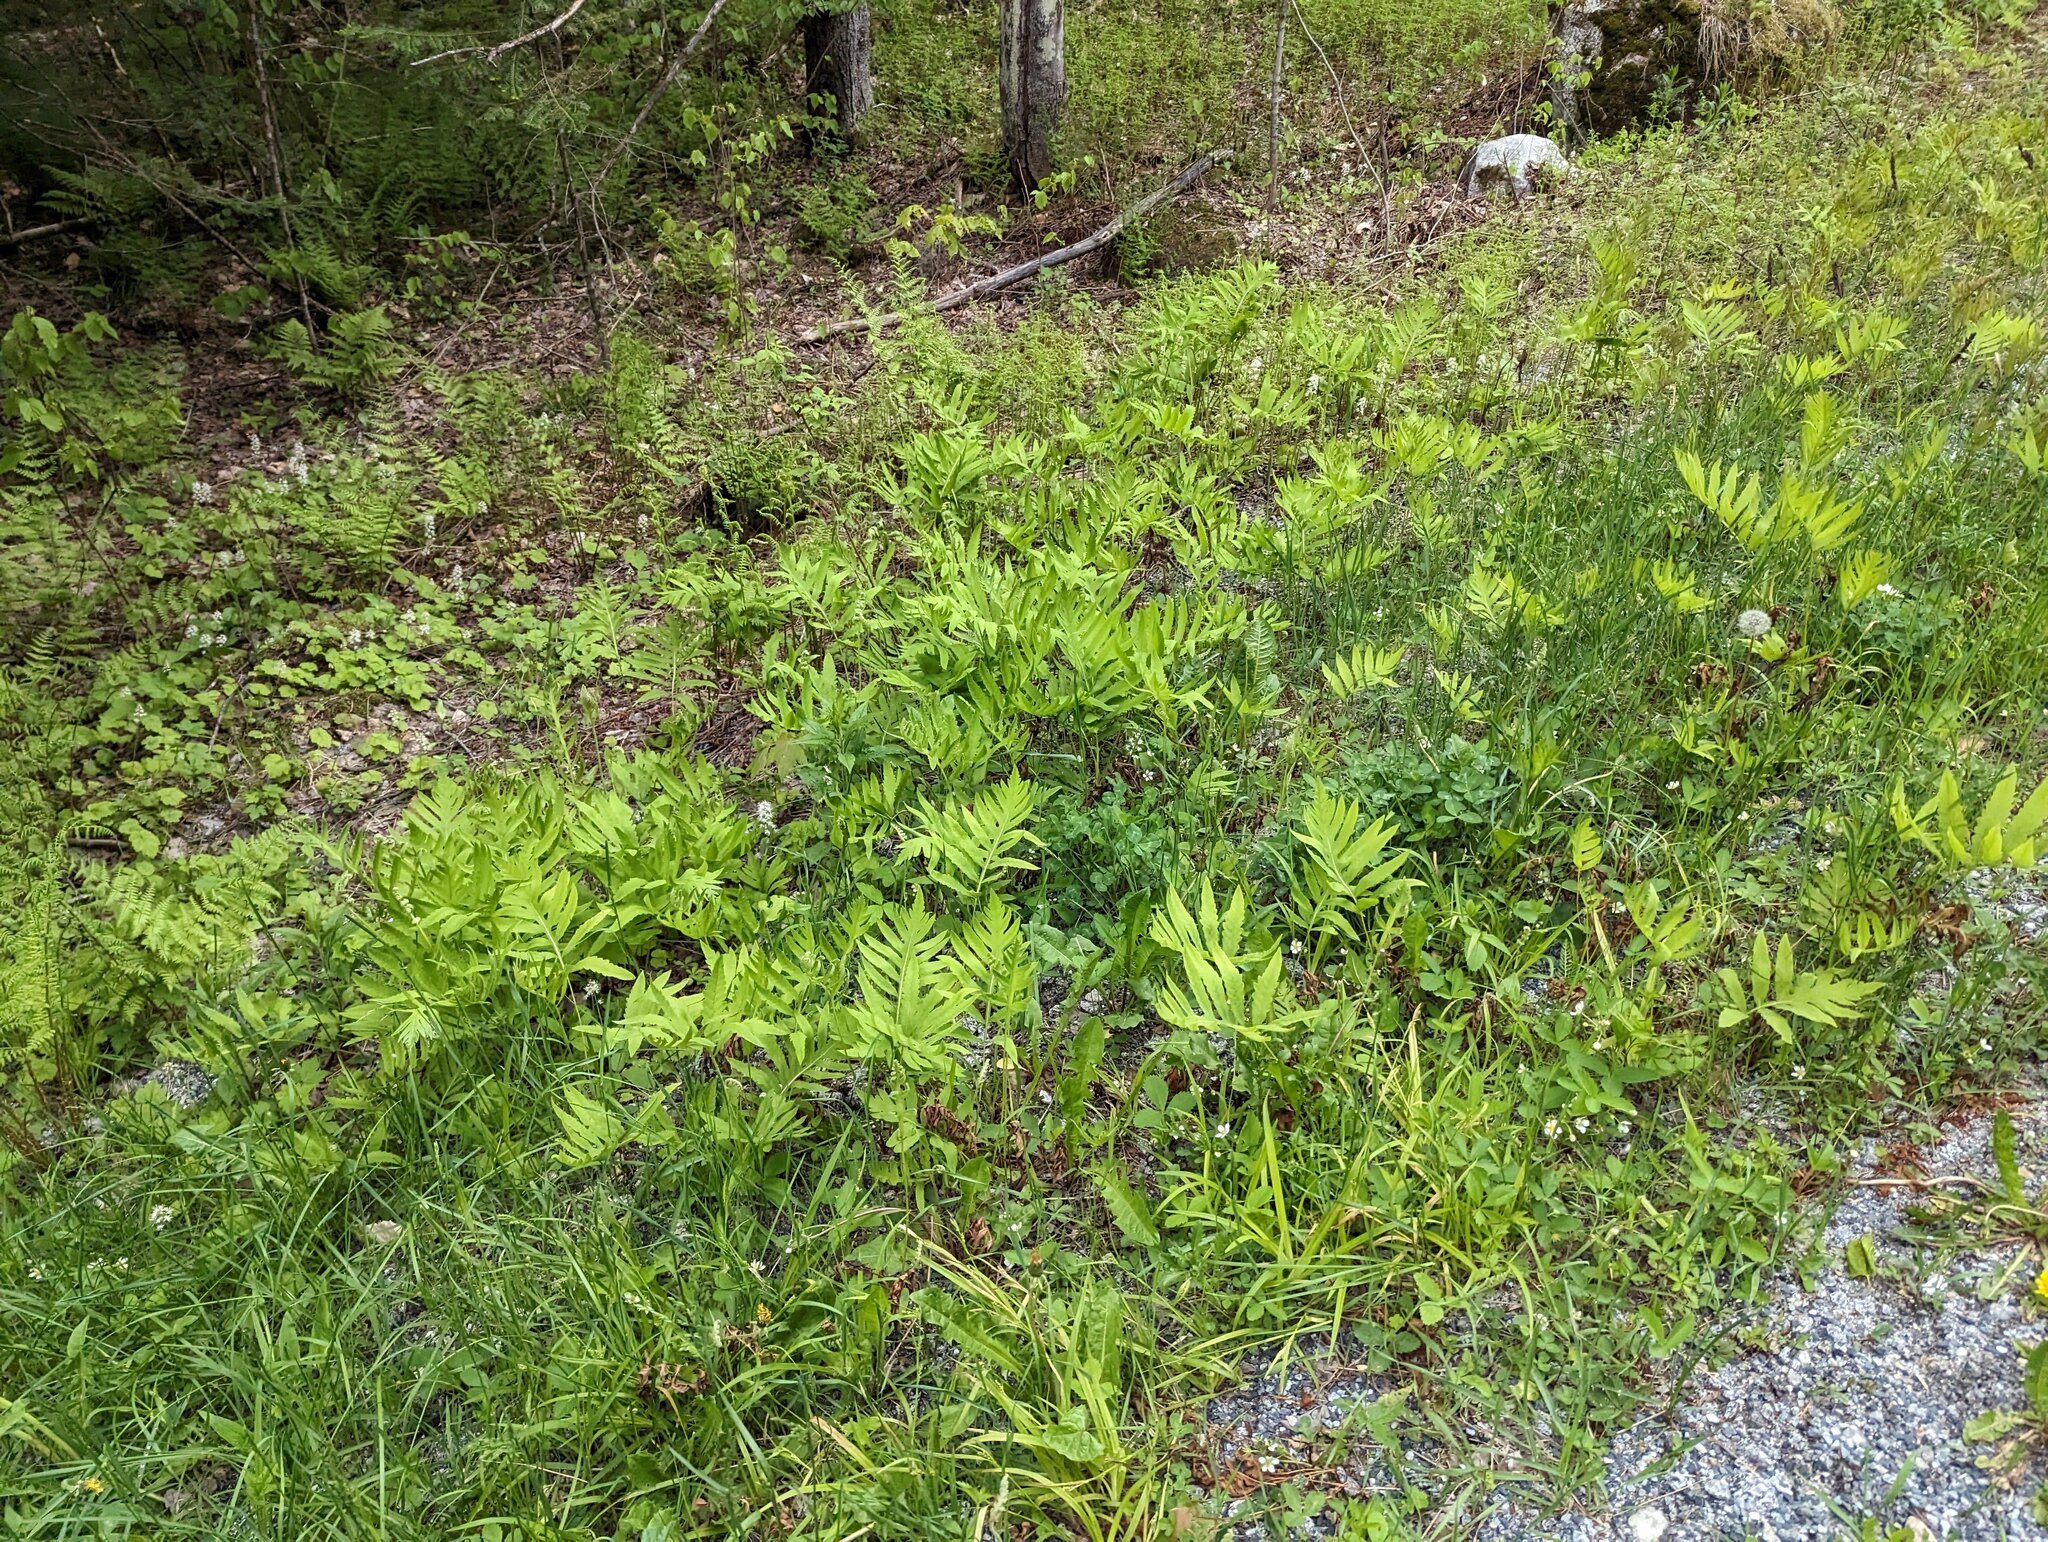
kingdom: Plantae
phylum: Tracheophyta
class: Polypodiopsida
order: Polypodiales
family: Onocleaceae
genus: Onoclea
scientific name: Onoclea sensibilis
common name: Sensitive fern
